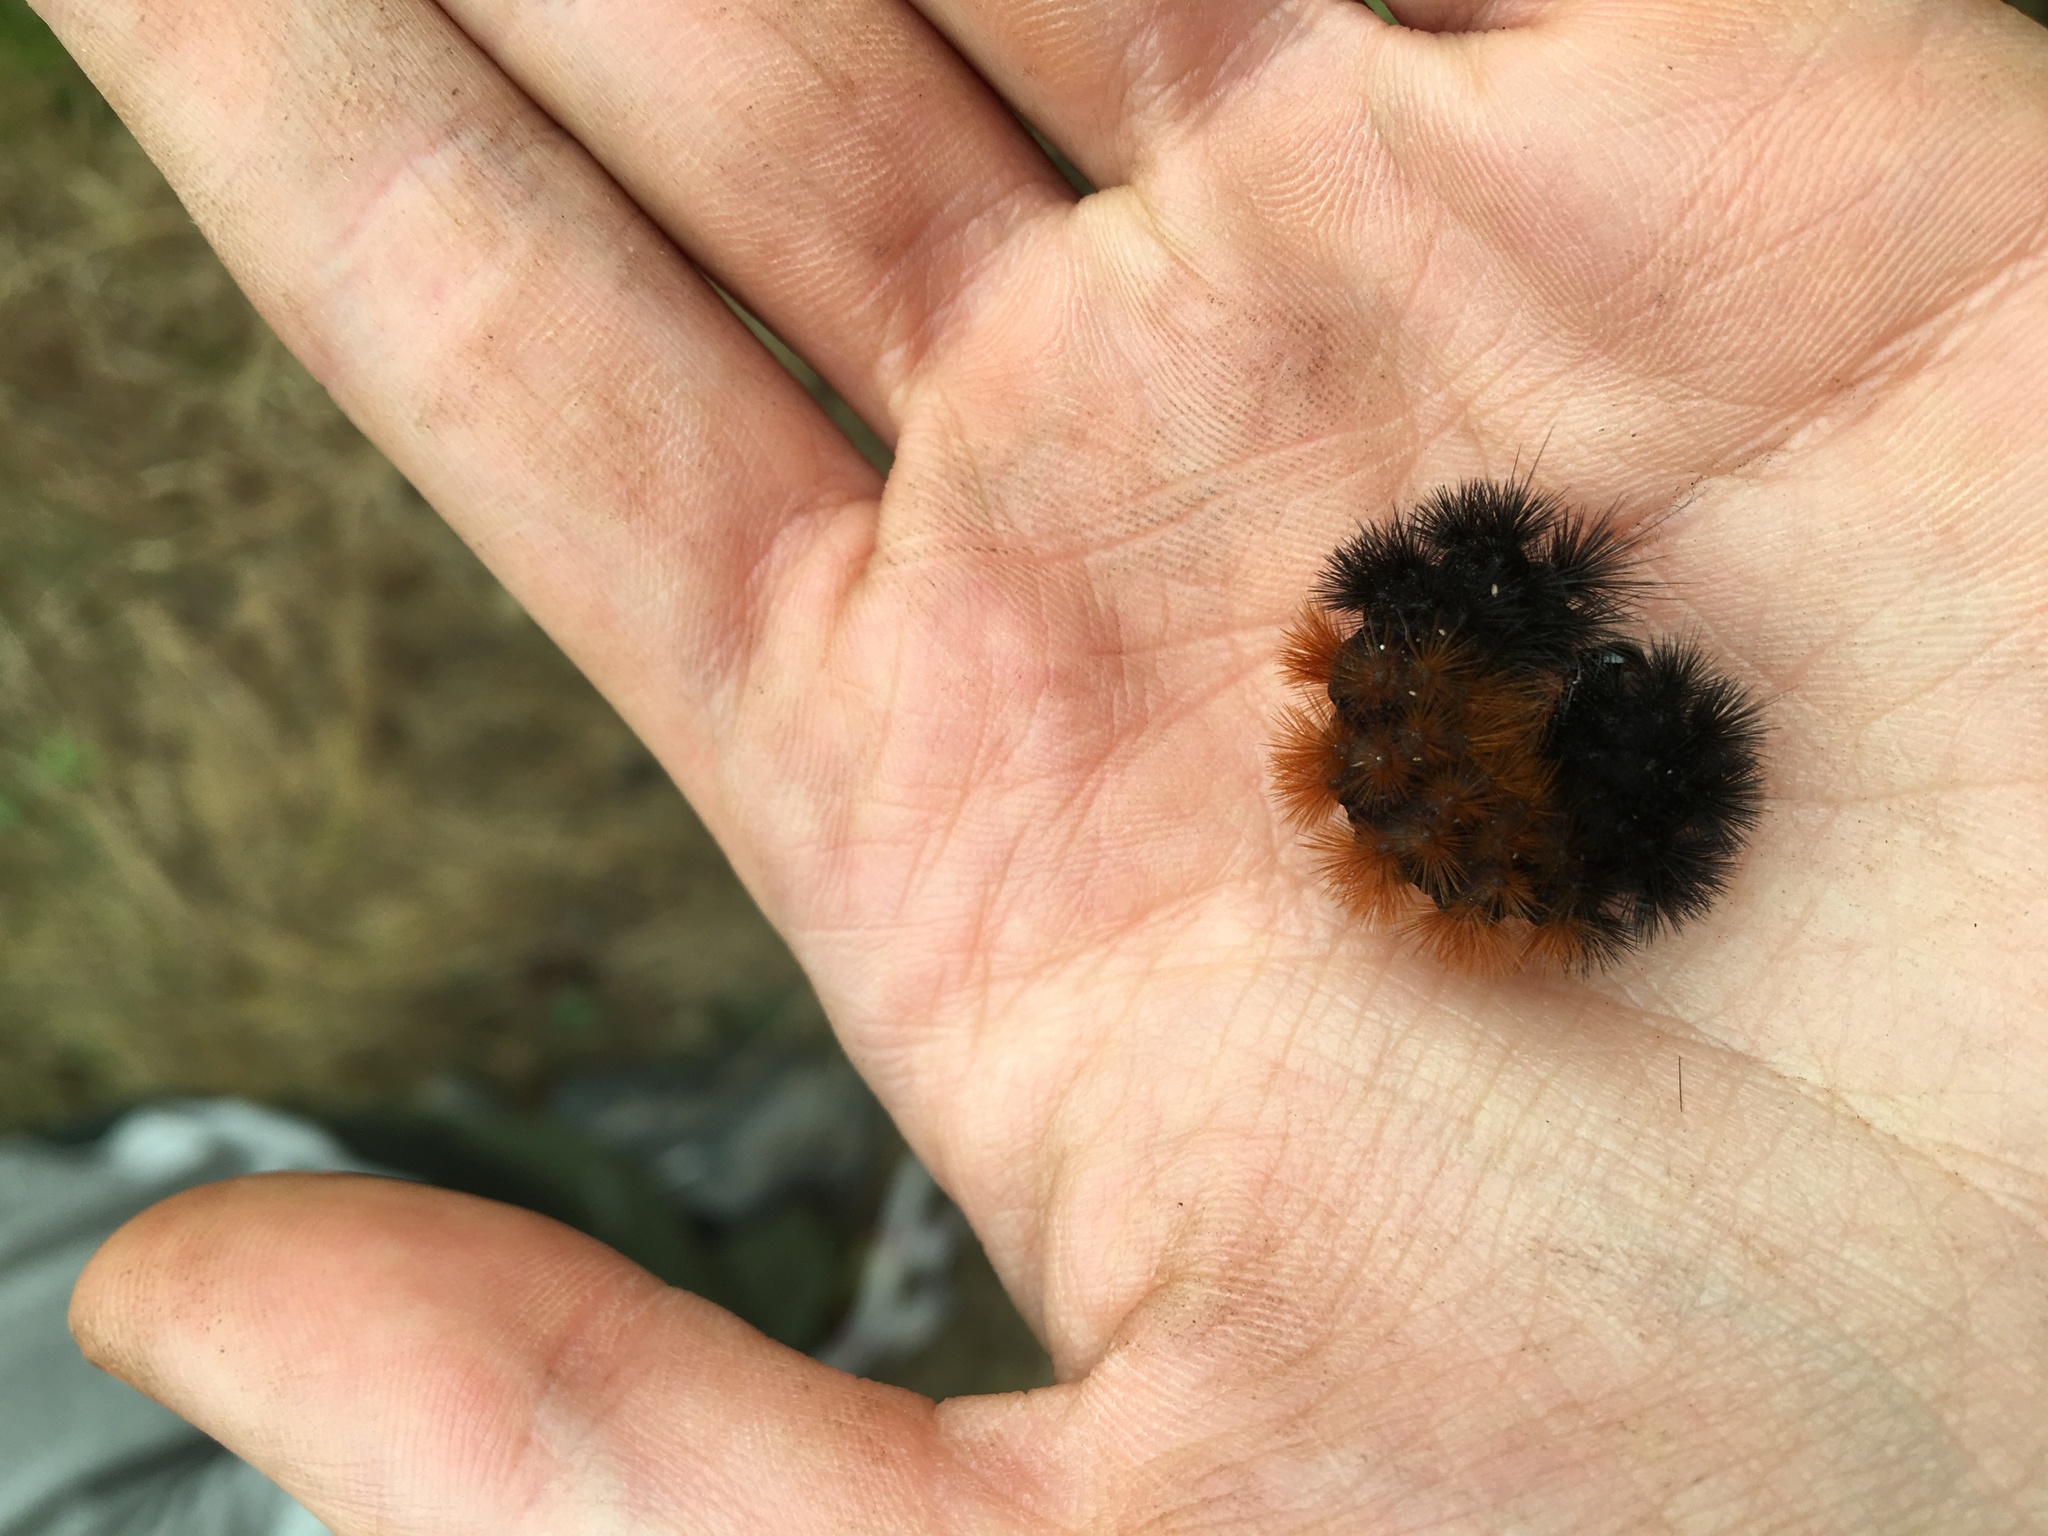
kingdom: Animalia
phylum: Arthropoda
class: Insecta
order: Lepidoptera
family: Erebidae
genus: Pyrrharctia
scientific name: Pyrrharctia isabella
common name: Isabella tiger moth
